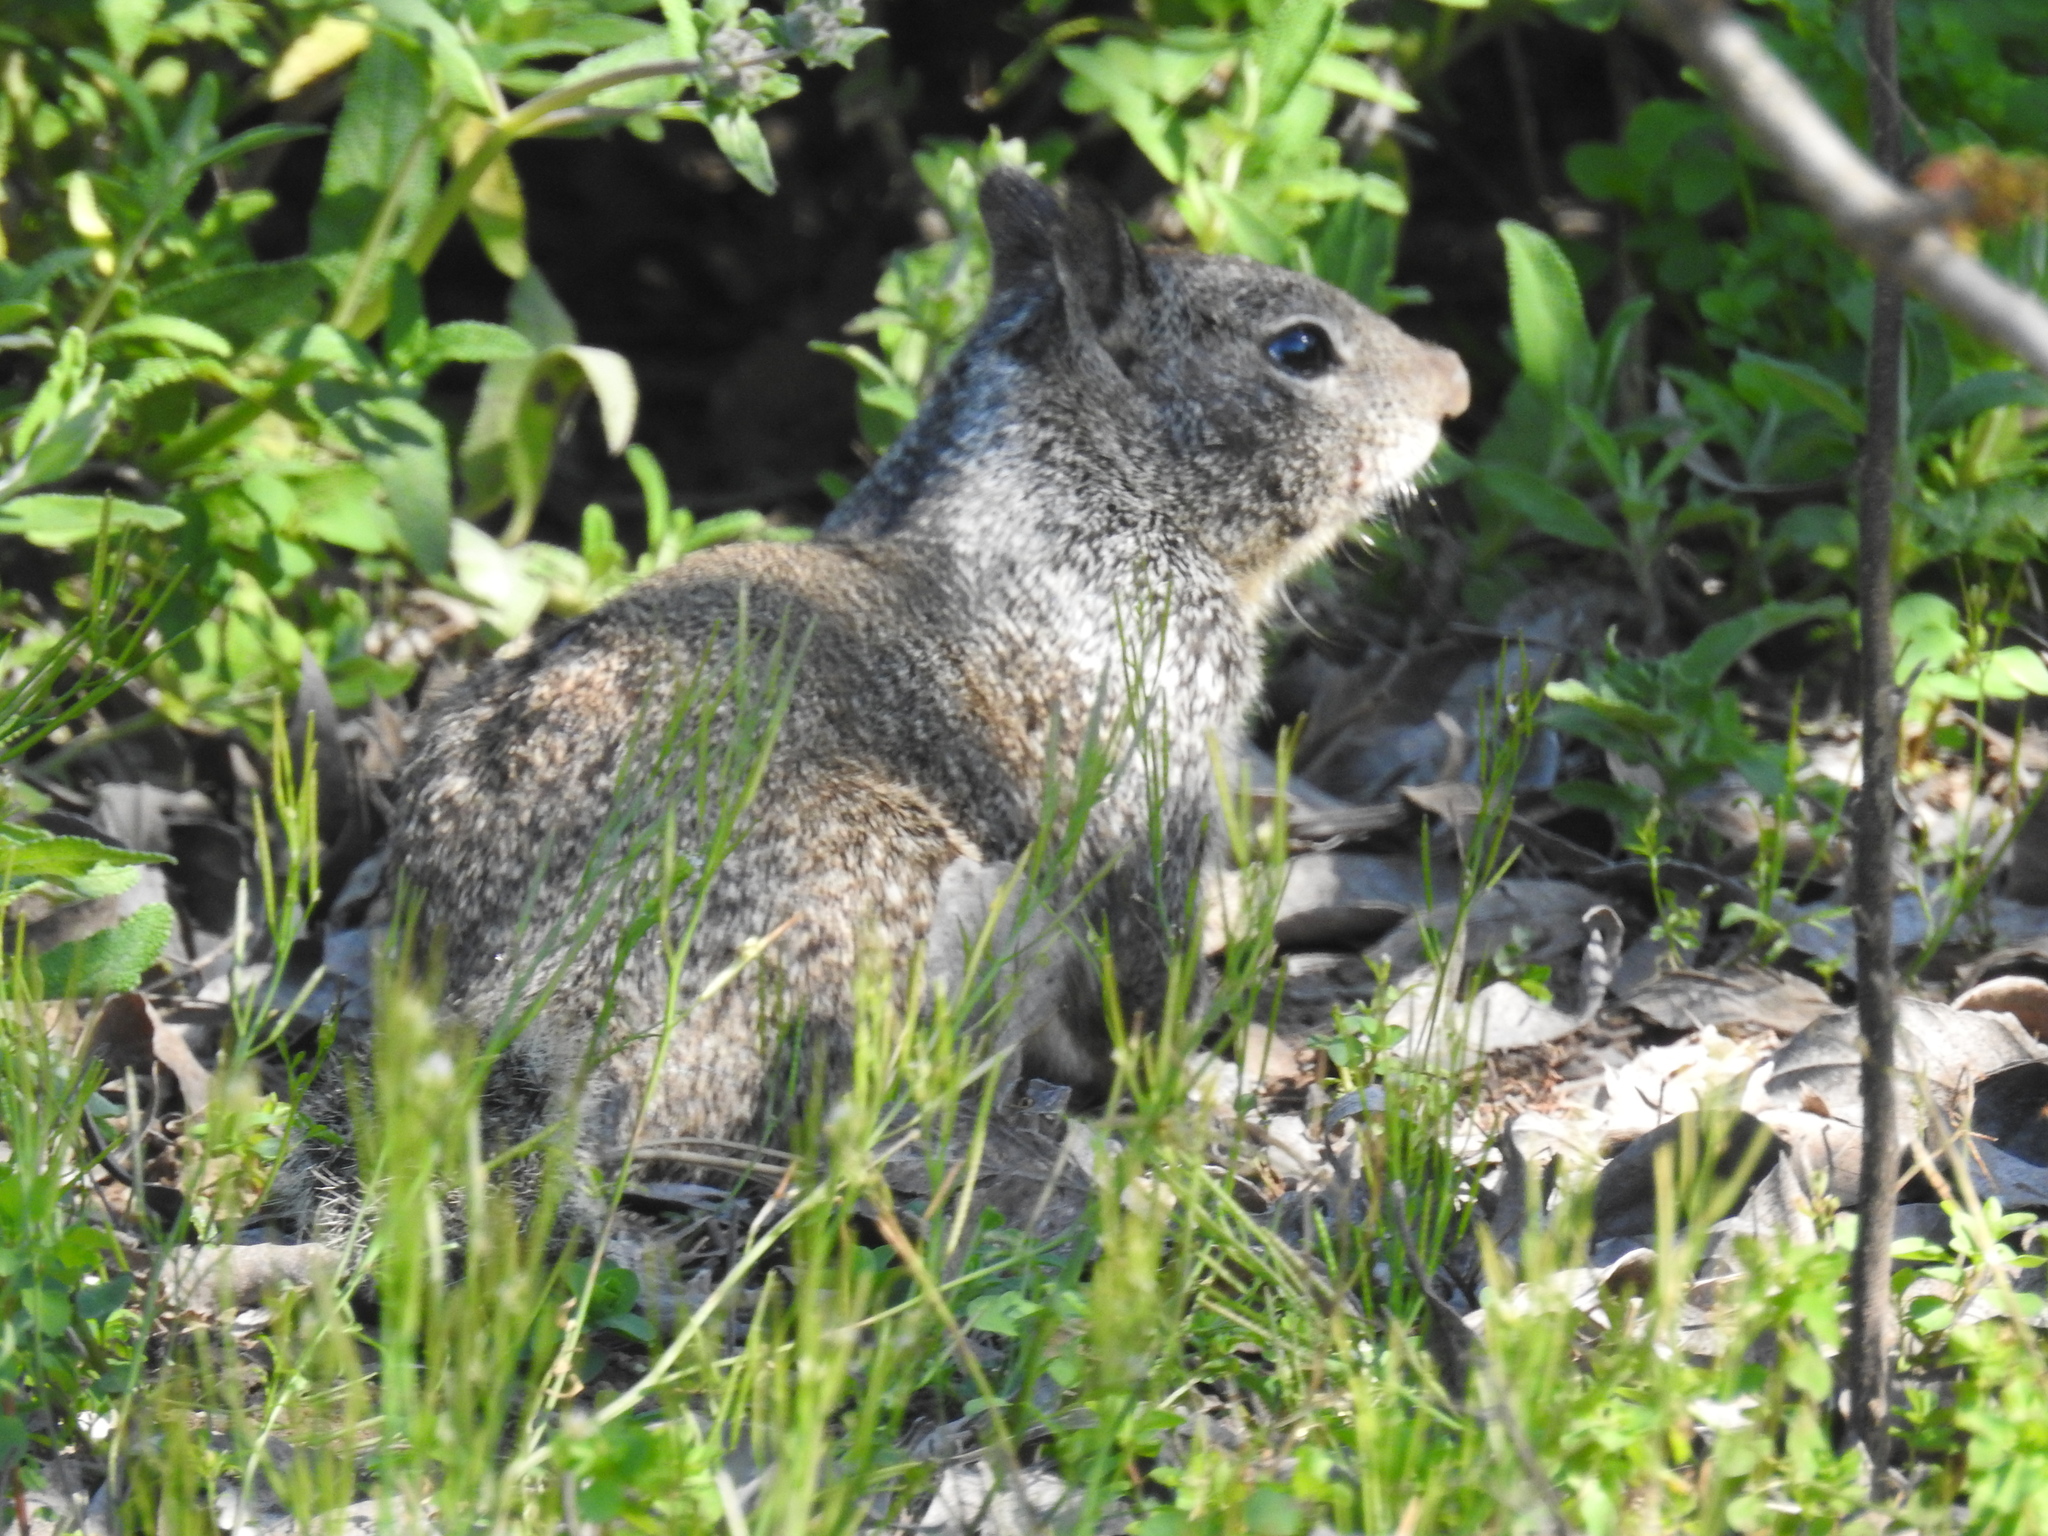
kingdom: Animalia
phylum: Chordata
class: Mammalia
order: Rodentia
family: Sciuridae
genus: Otospermophilus
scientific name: Otospermophilus beecheyi
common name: California ground squirrel
